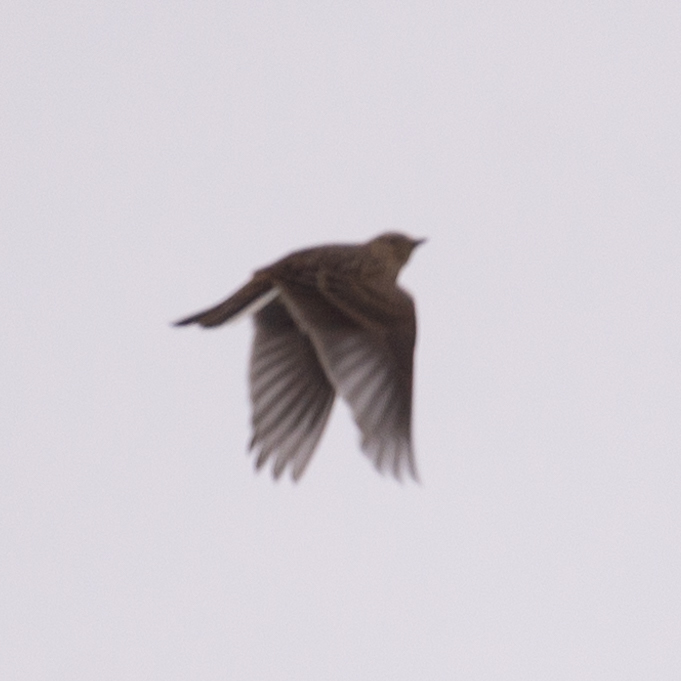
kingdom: Animalia
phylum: Chordata
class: Aves
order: Passeriformes
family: Alaudidae
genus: Alauda
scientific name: Alauda arvensis
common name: Eurasian skylark
